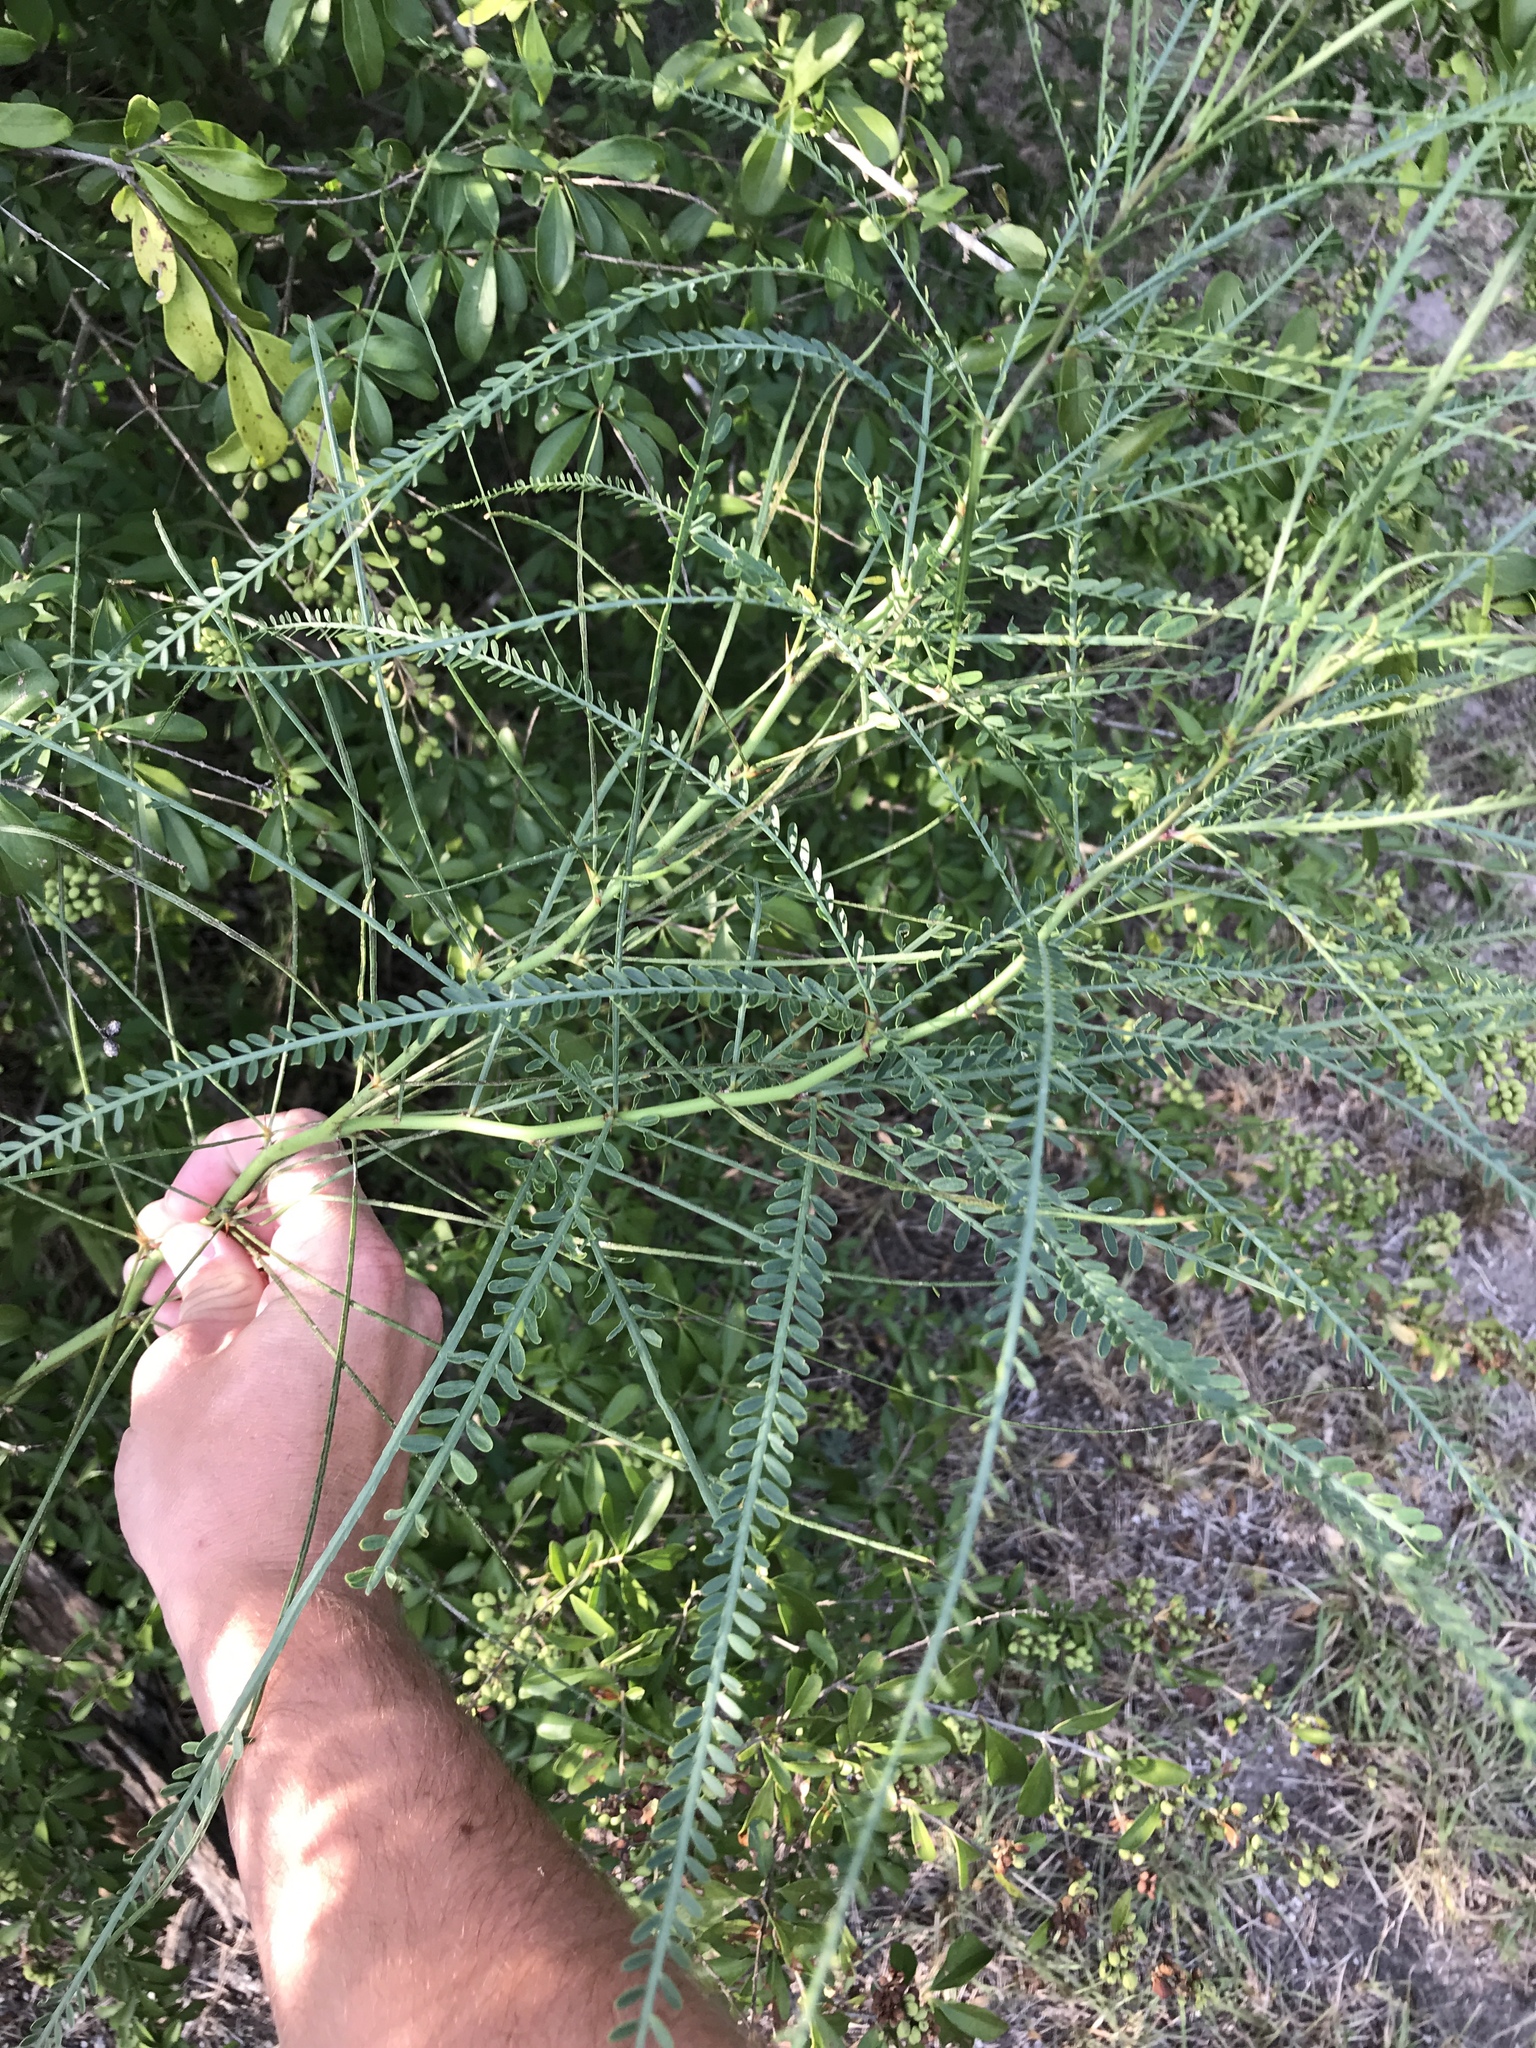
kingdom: Plantae
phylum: Tracheophyta
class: Magnoliopsida
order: Fabales
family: Fabaceae
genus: Parkinsonia
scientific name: Parkinsonia aculeata
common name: Jerusalem thorn
